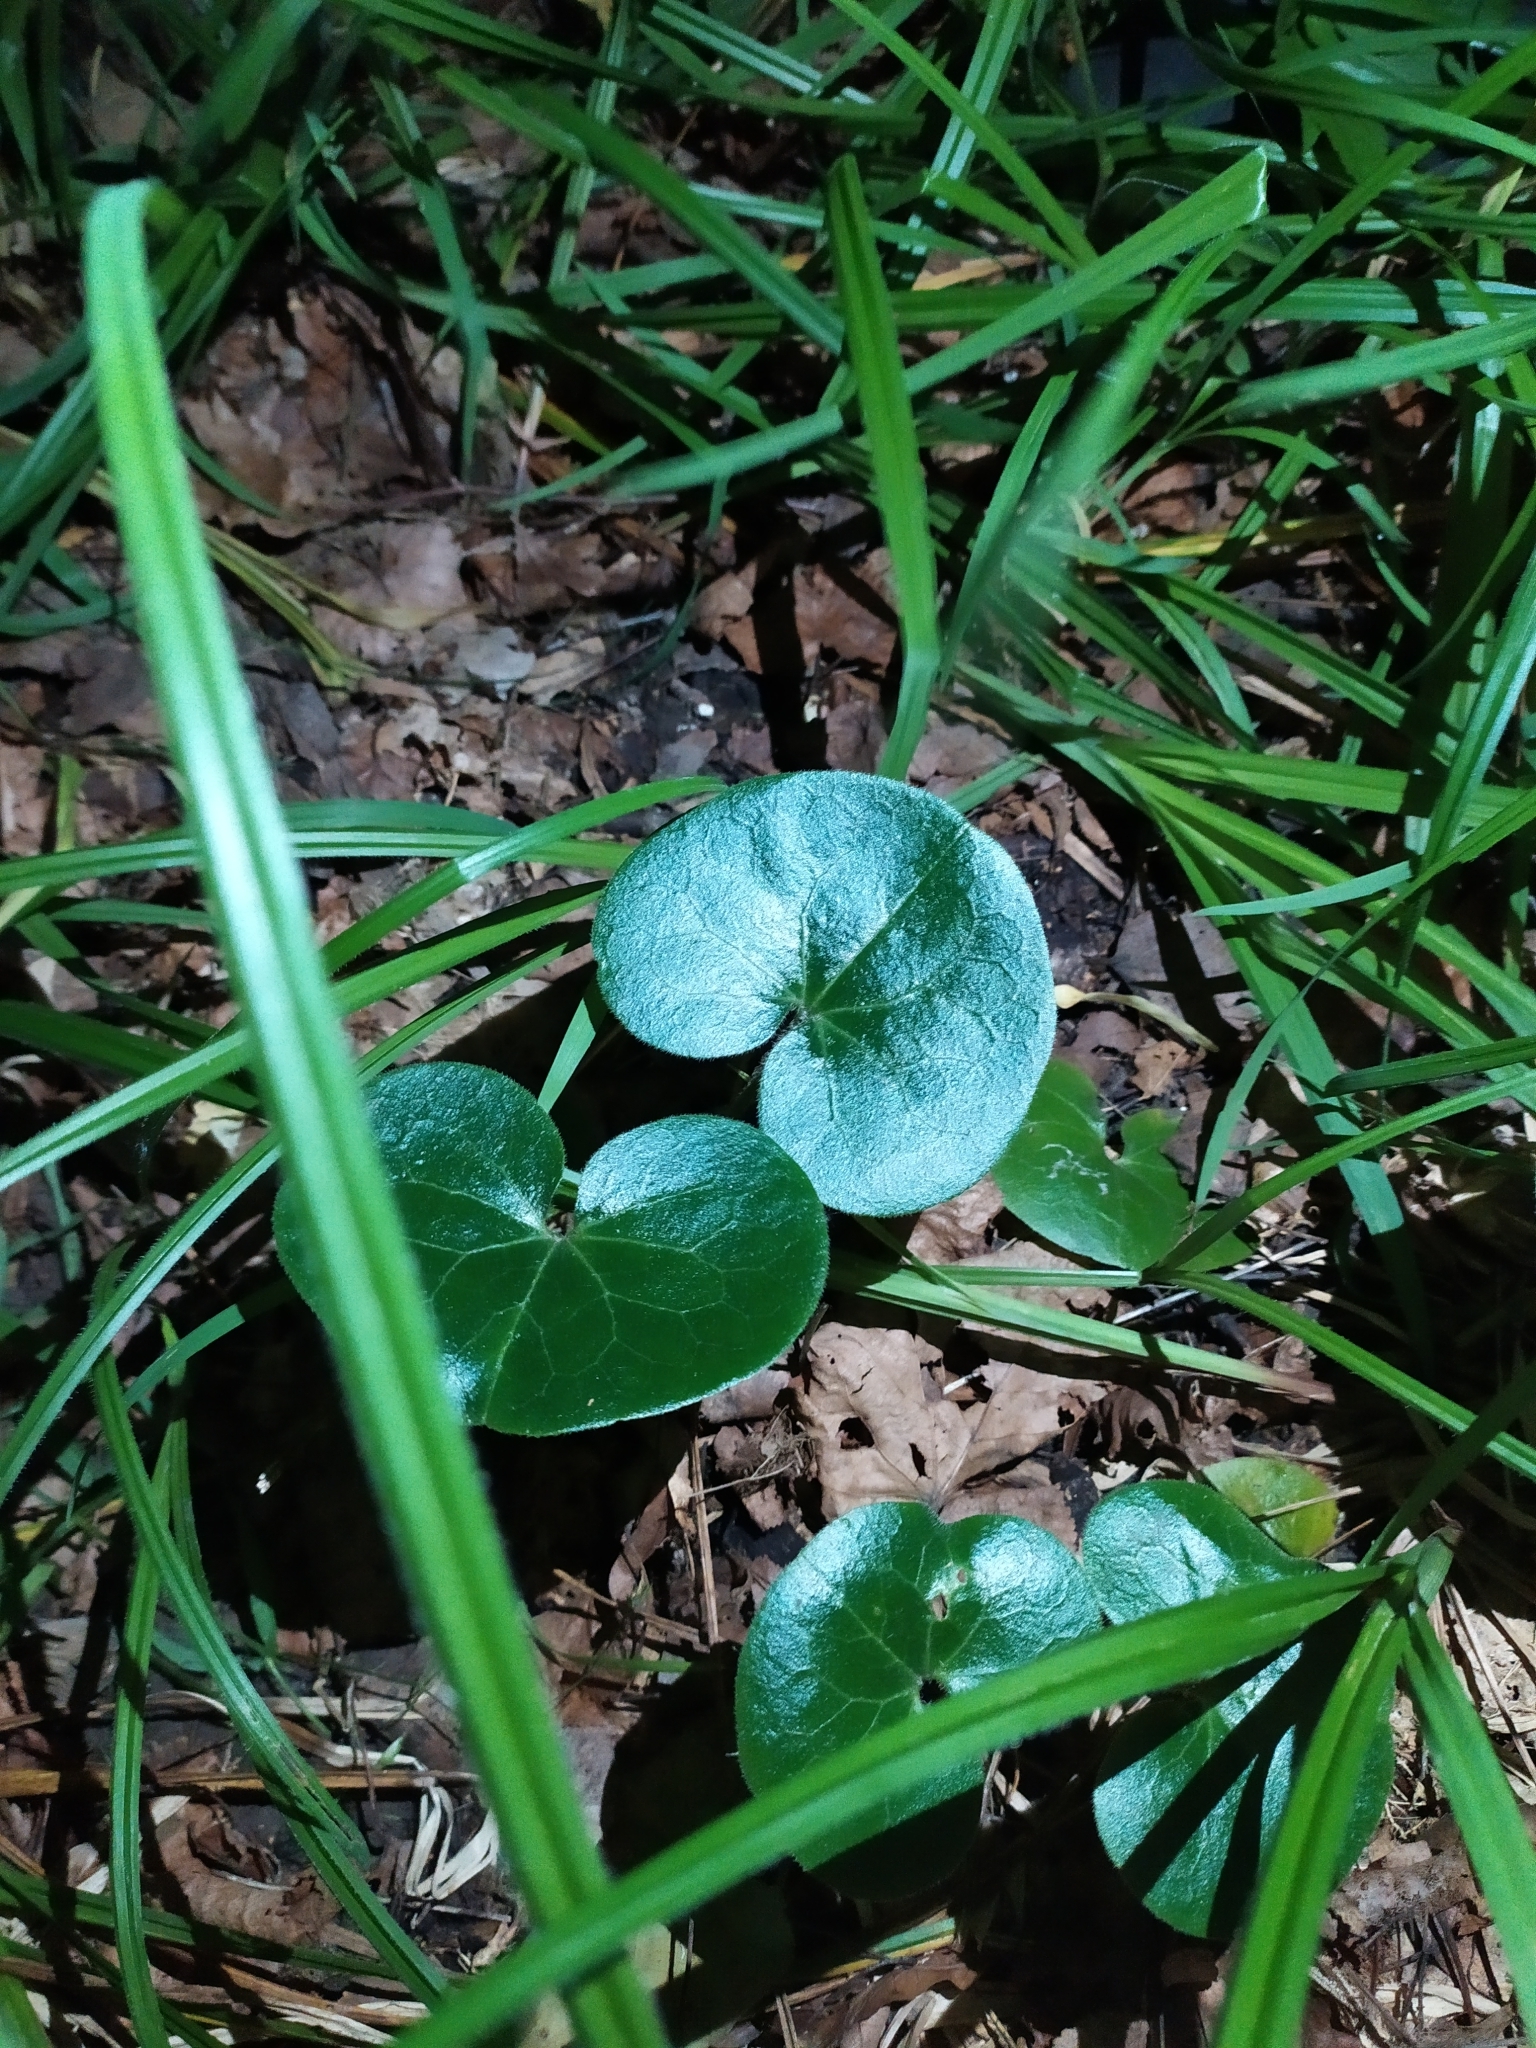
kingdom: Plantae
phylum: Tracheophyta
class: Magnoliopsida
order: Piperales
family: Aristolochiaceae
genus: Asarum
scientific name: Asarum europaeum
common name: Asarabacca
